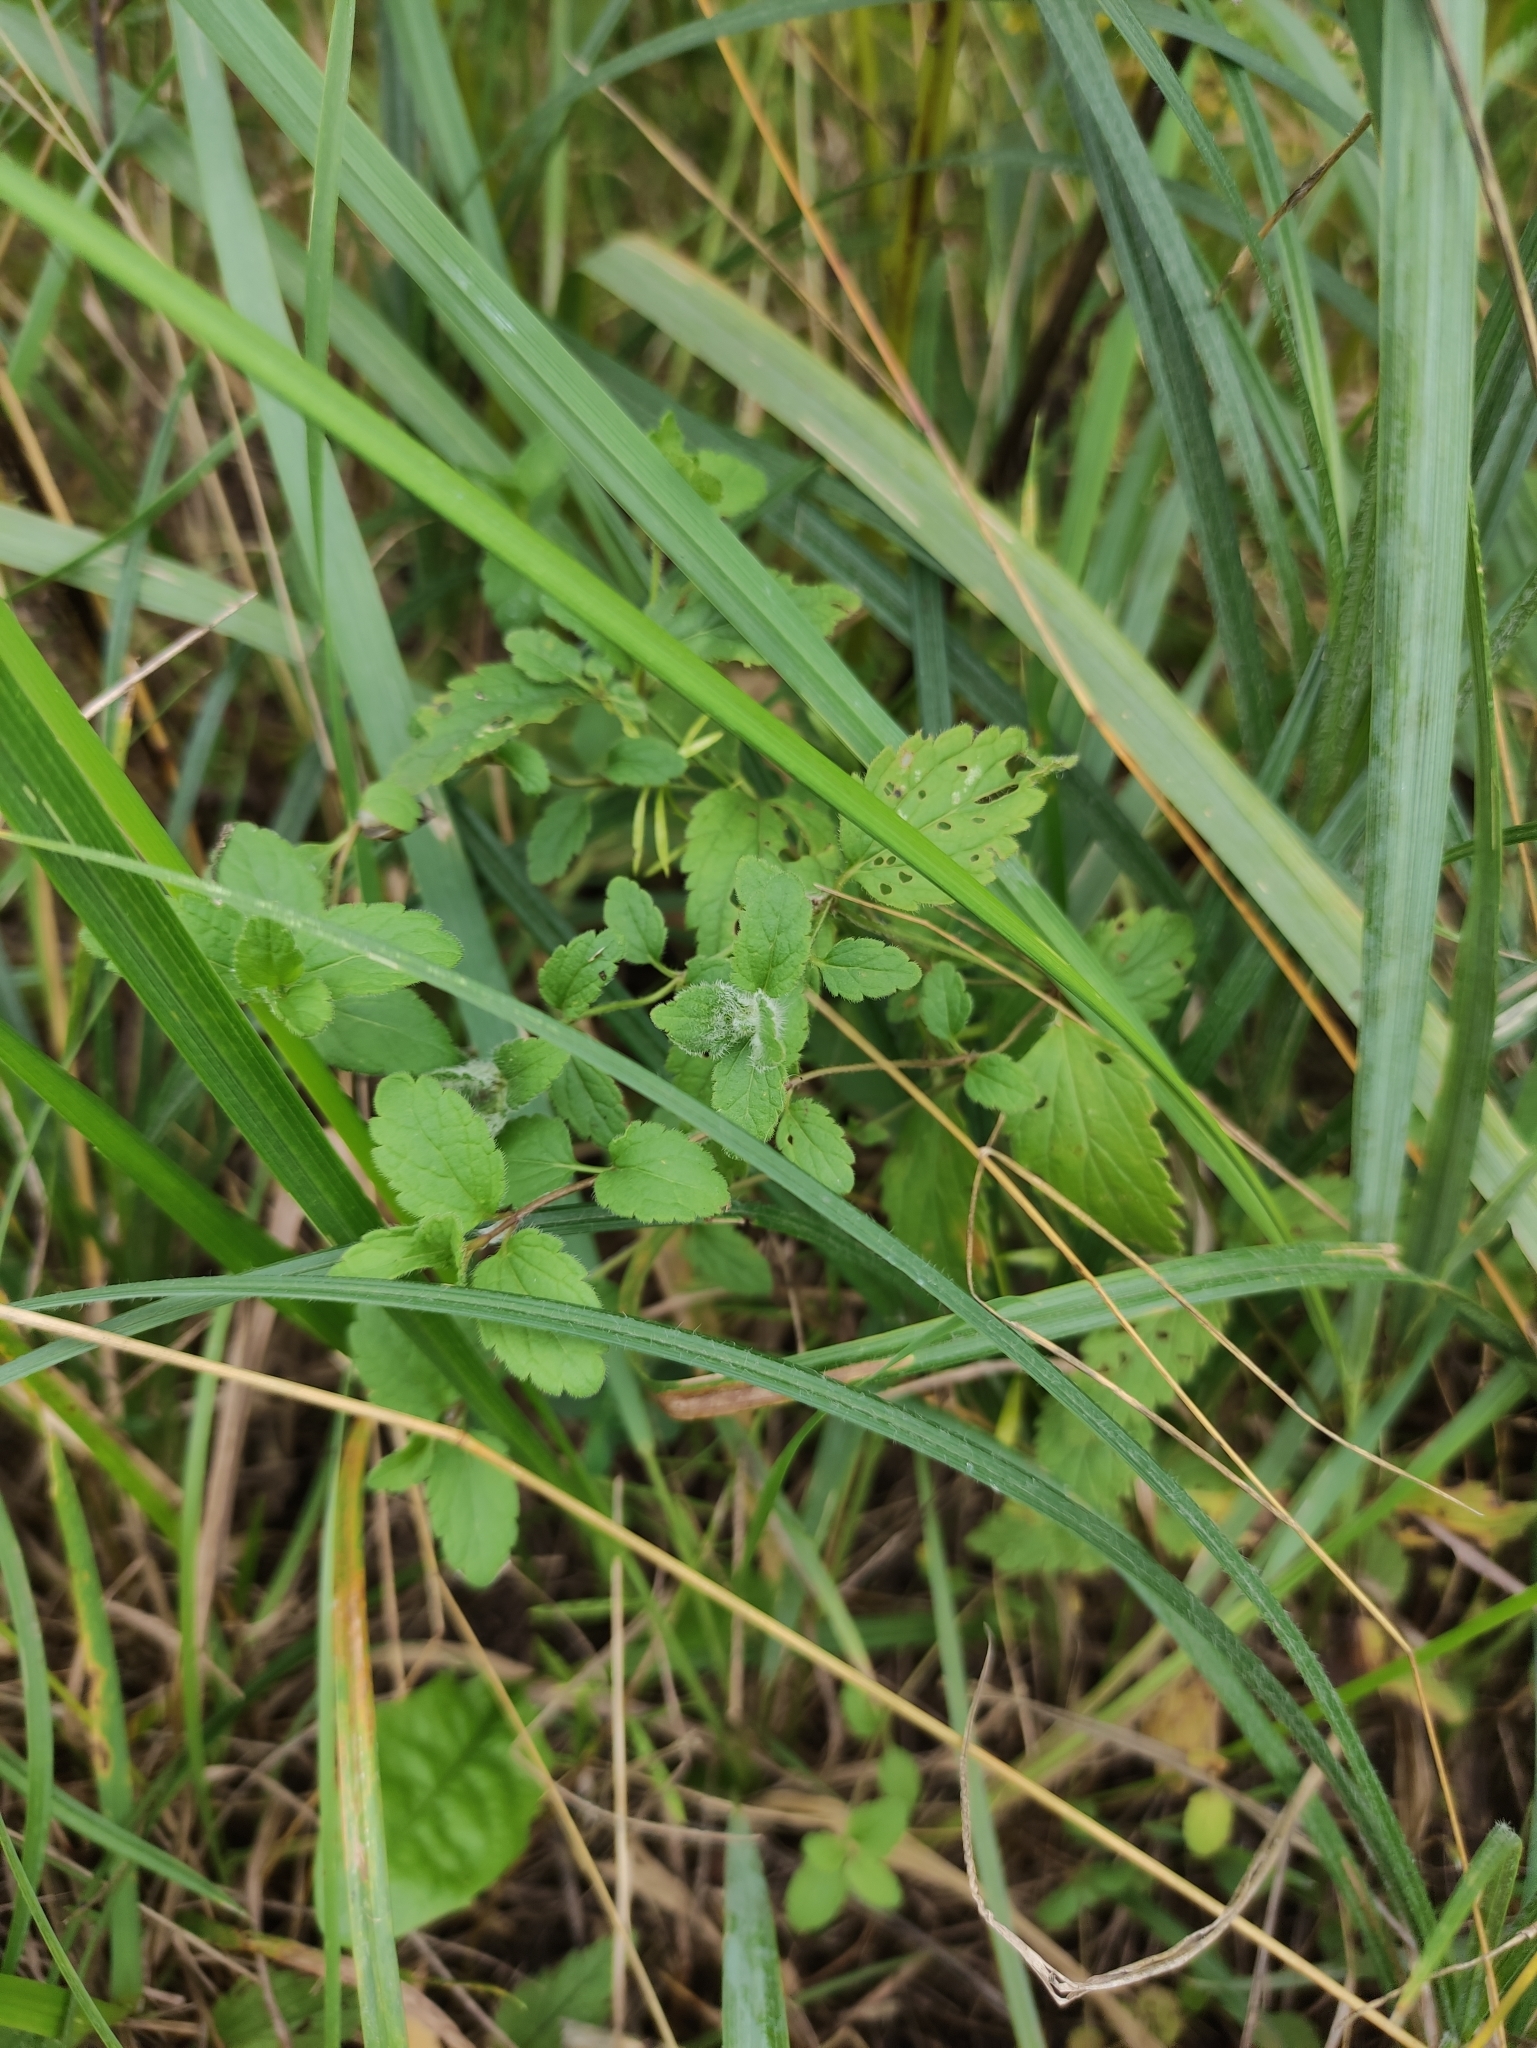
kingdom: Plantae
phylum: Tracheophyta
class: Magnoliopsida
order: Lamiales
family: Plantaginaceae
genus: Veronica
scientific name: Veronica chamaedrys
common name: Germander speedwell
